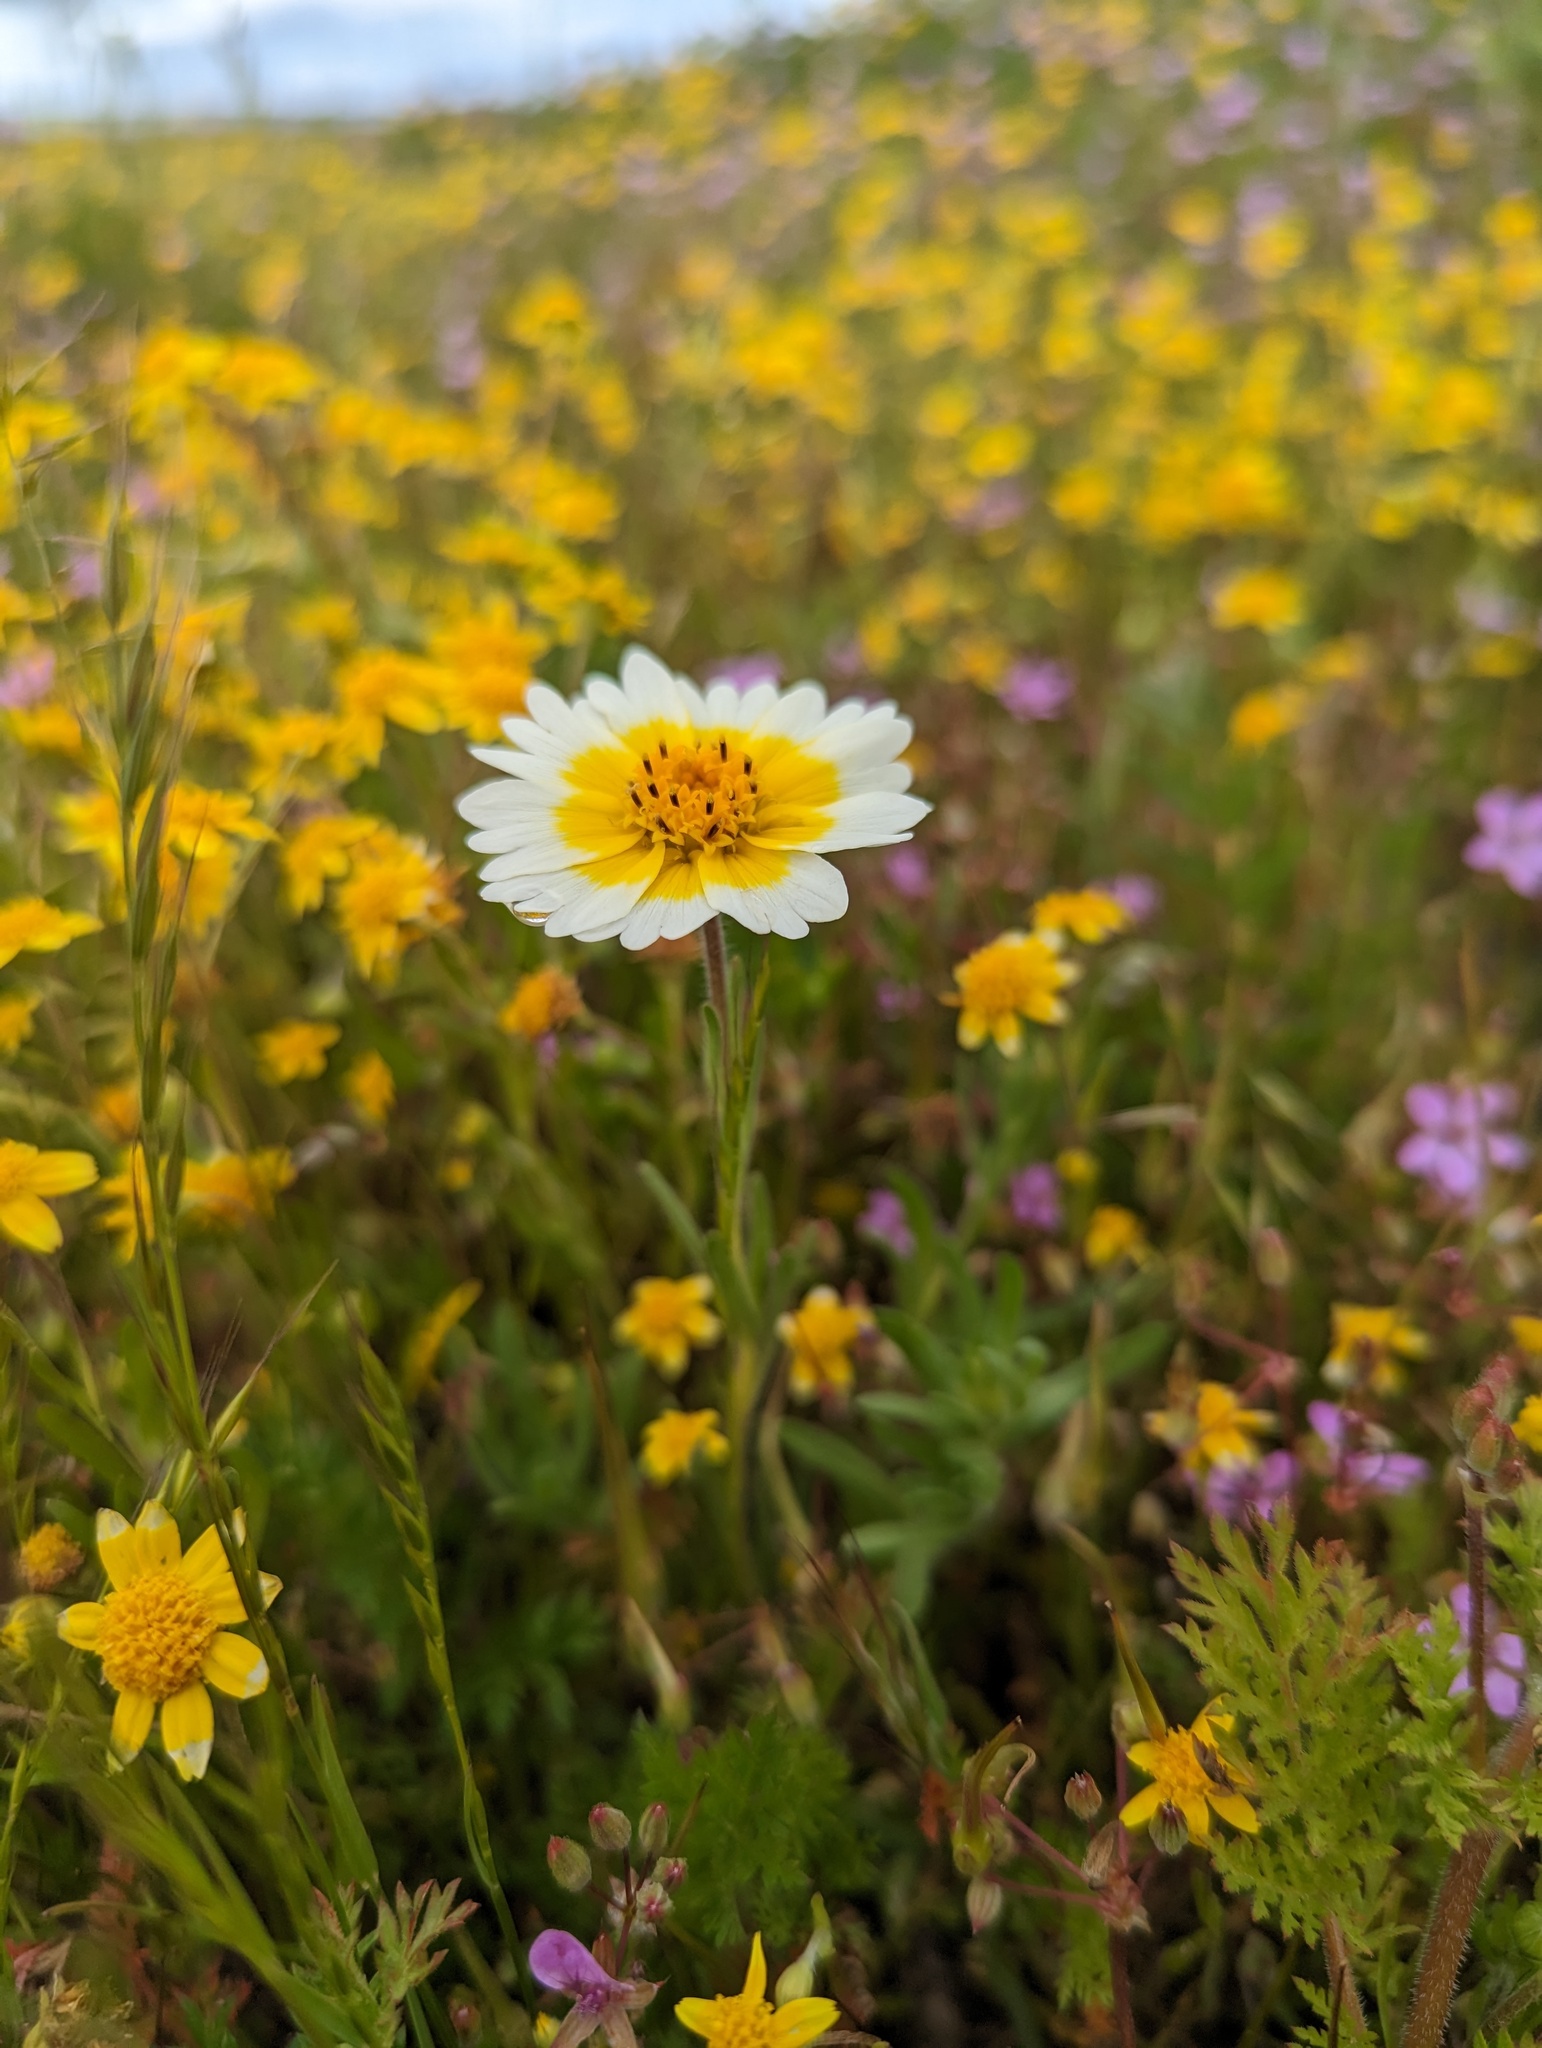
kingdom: Plantae
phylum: Tracheophyta
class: Magnoliopsida
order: Asterales
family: Asteraceae
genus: Layia
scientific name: Layia platyglossa
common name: Tidy-tips
